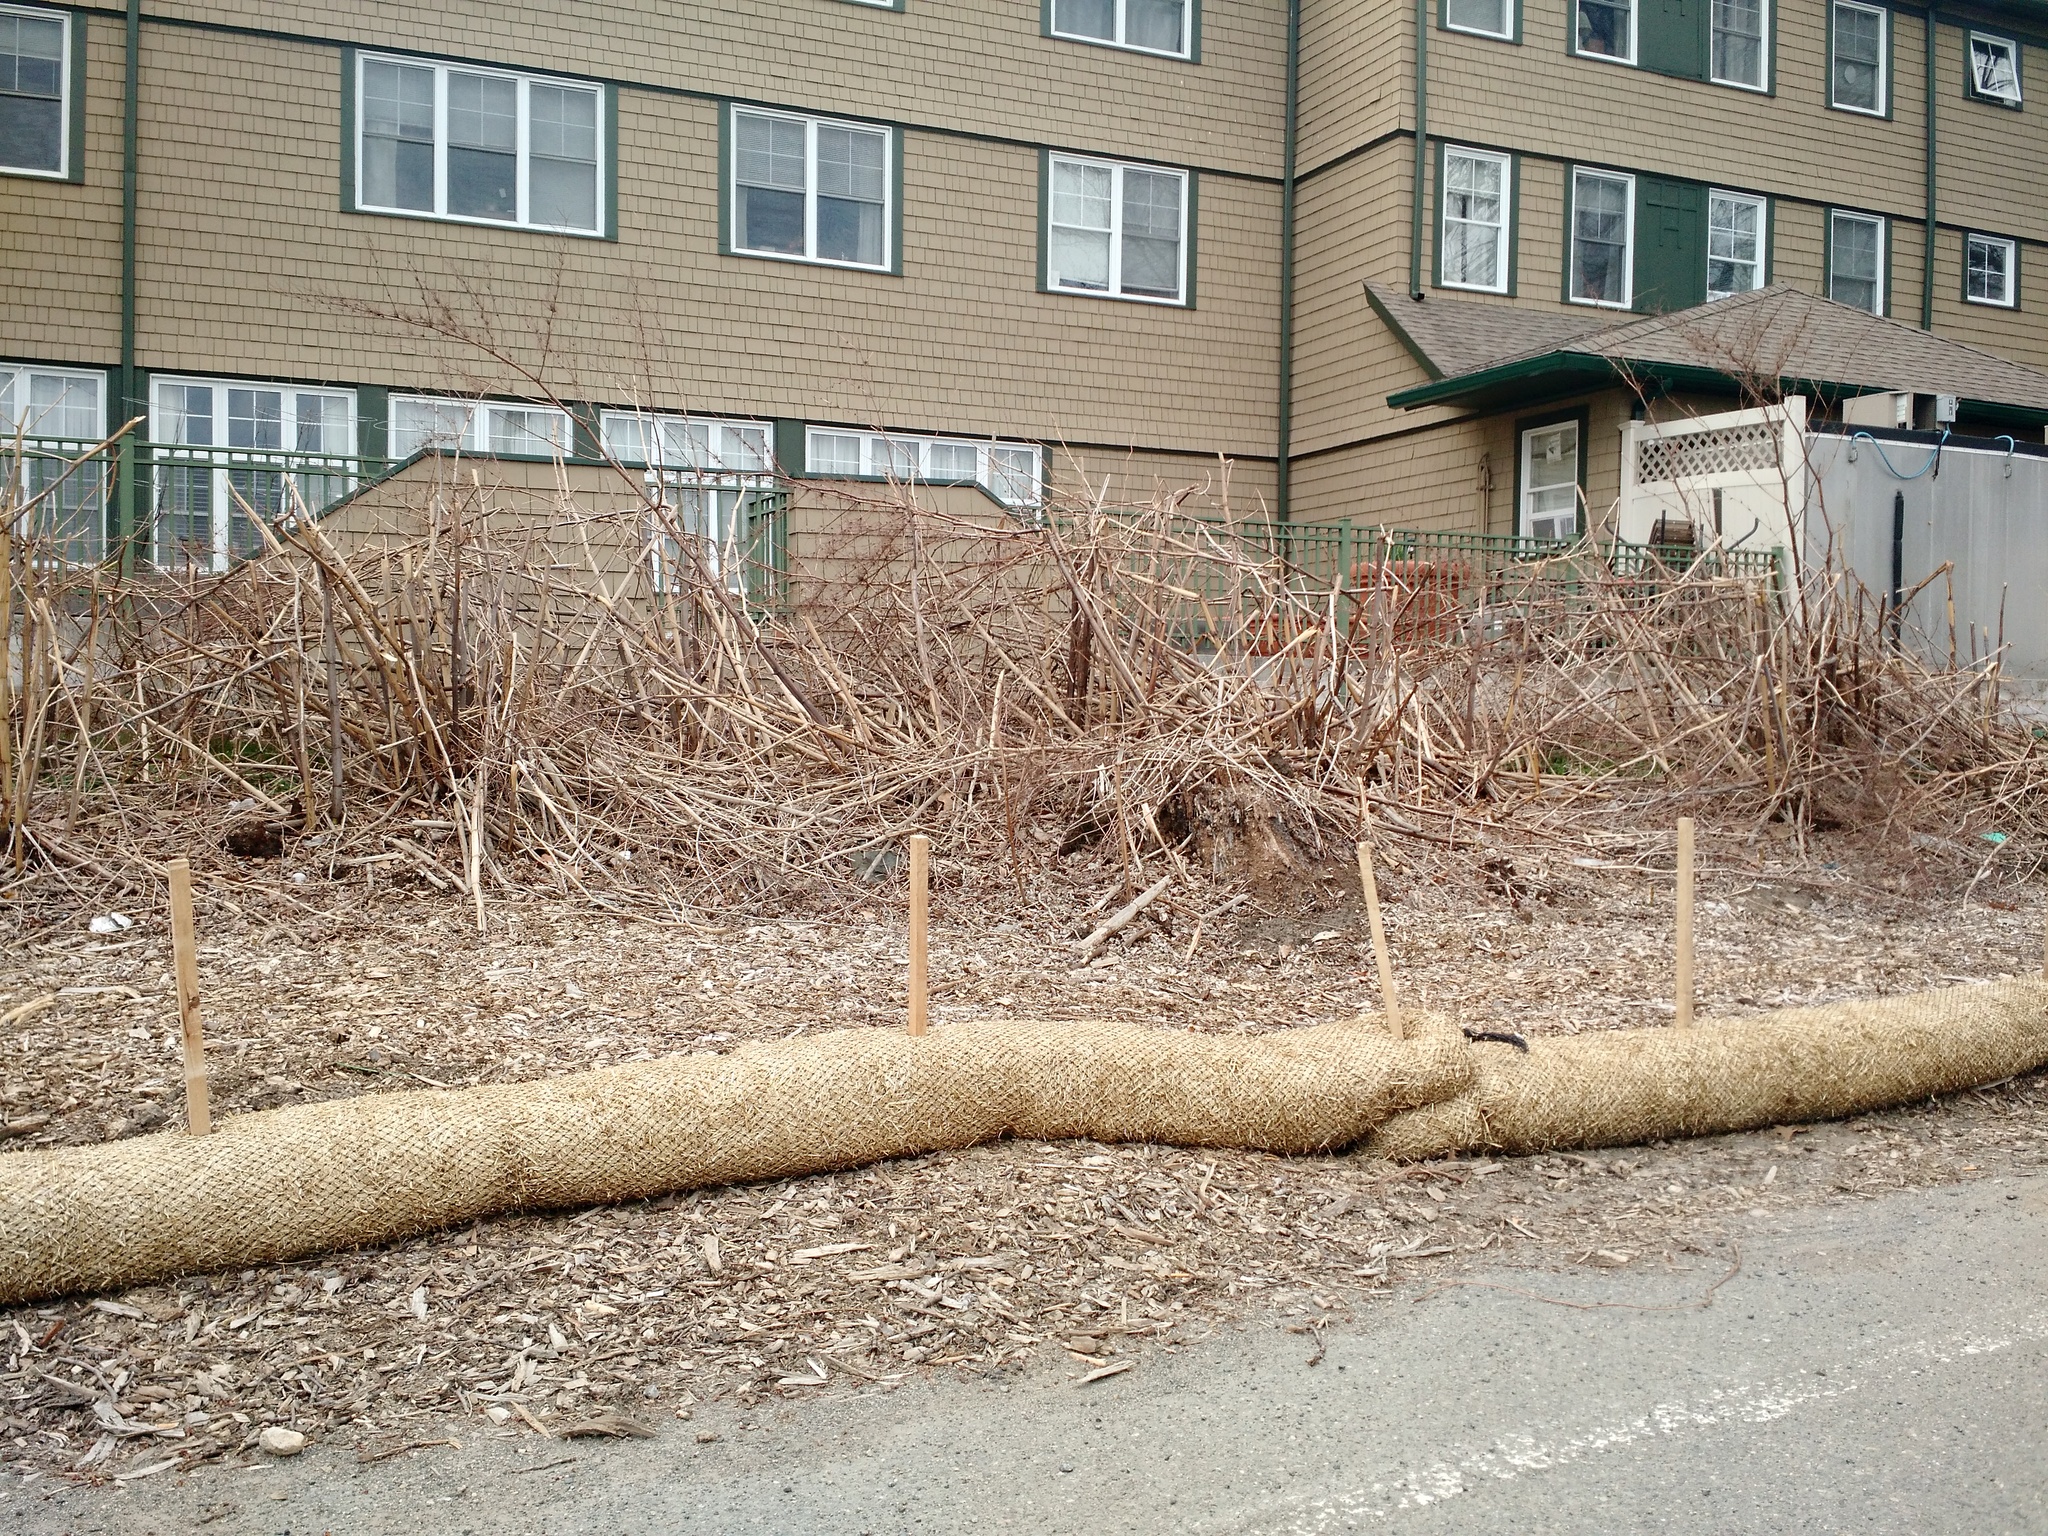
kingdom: Plantae
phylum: Tracheophyta
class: Magnoliopsida
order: Caryophyllales
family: Polygonaceae
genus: Reynoutria
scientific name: Reynoutria japonica
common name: Japanese knotweed
